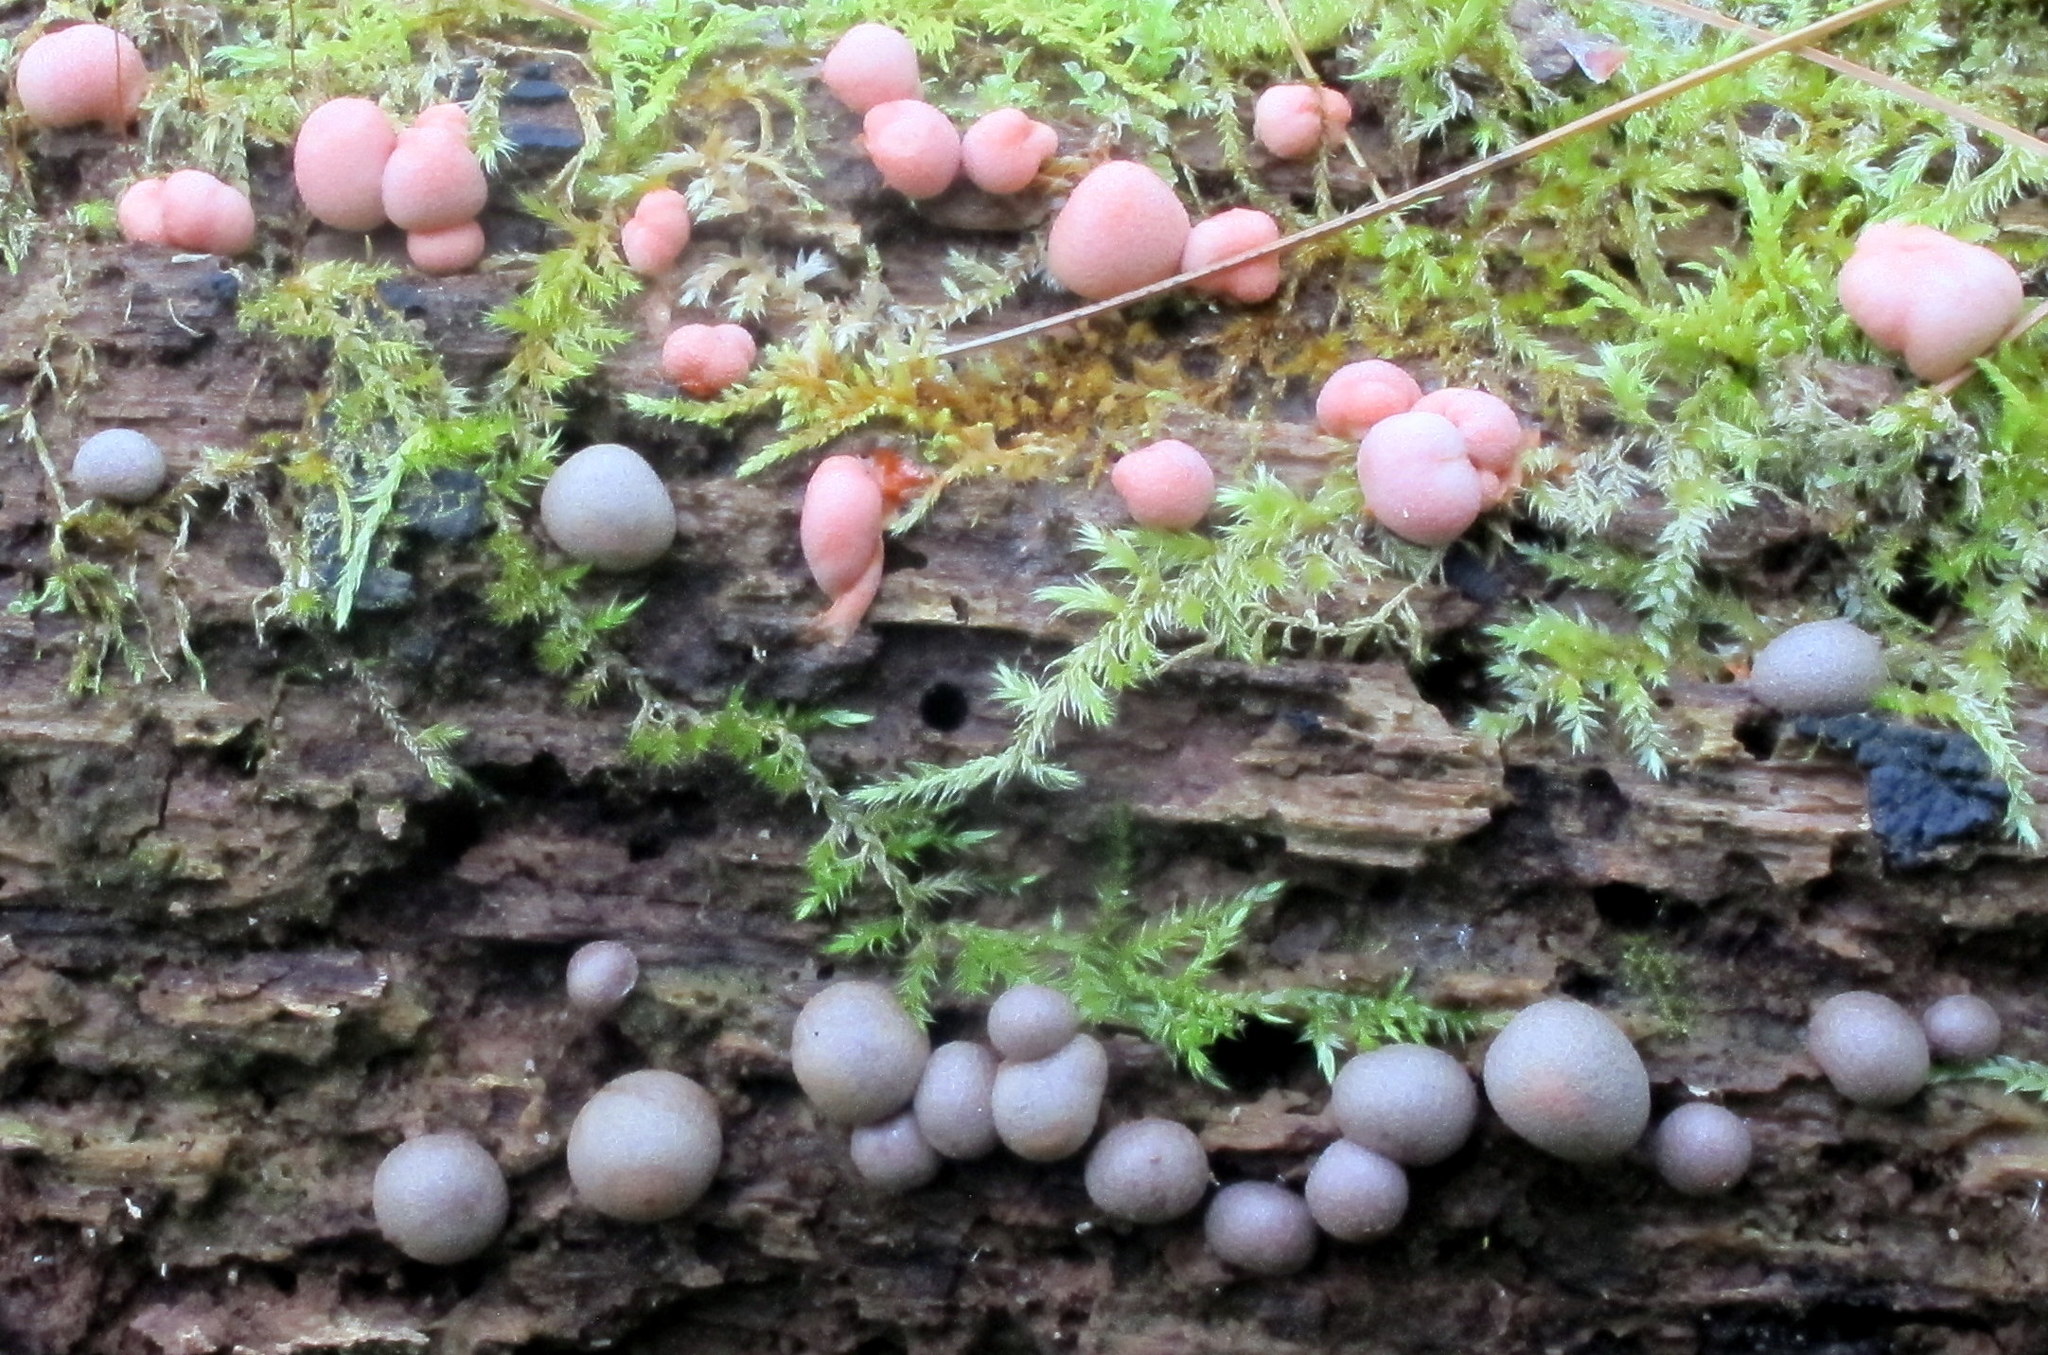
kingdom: Protozoa
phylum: Mycetozoa
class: Myxomycetes
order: Cribrariales
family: Tubiferaceae
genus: Lycogala
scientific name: Lycogala epidendrum
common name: Wolf's milk
